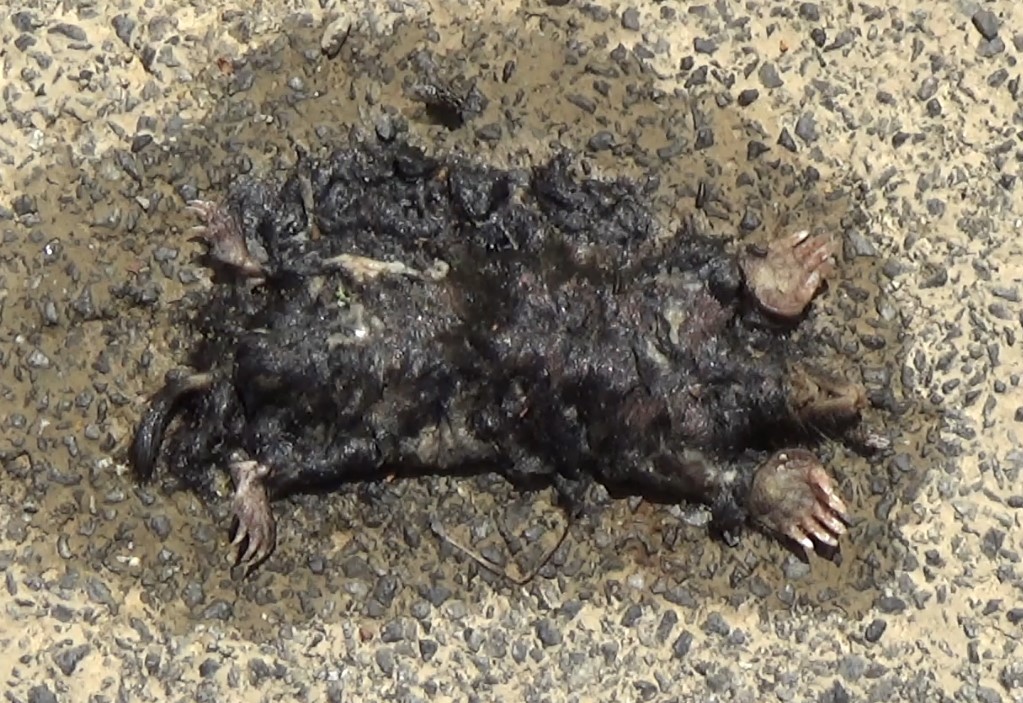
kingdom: Animalia
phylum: Chordata
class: Mammalia
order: Soricomorpha
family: Talpidae
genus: Talpa
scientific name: Talpa europaea
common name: European mole
